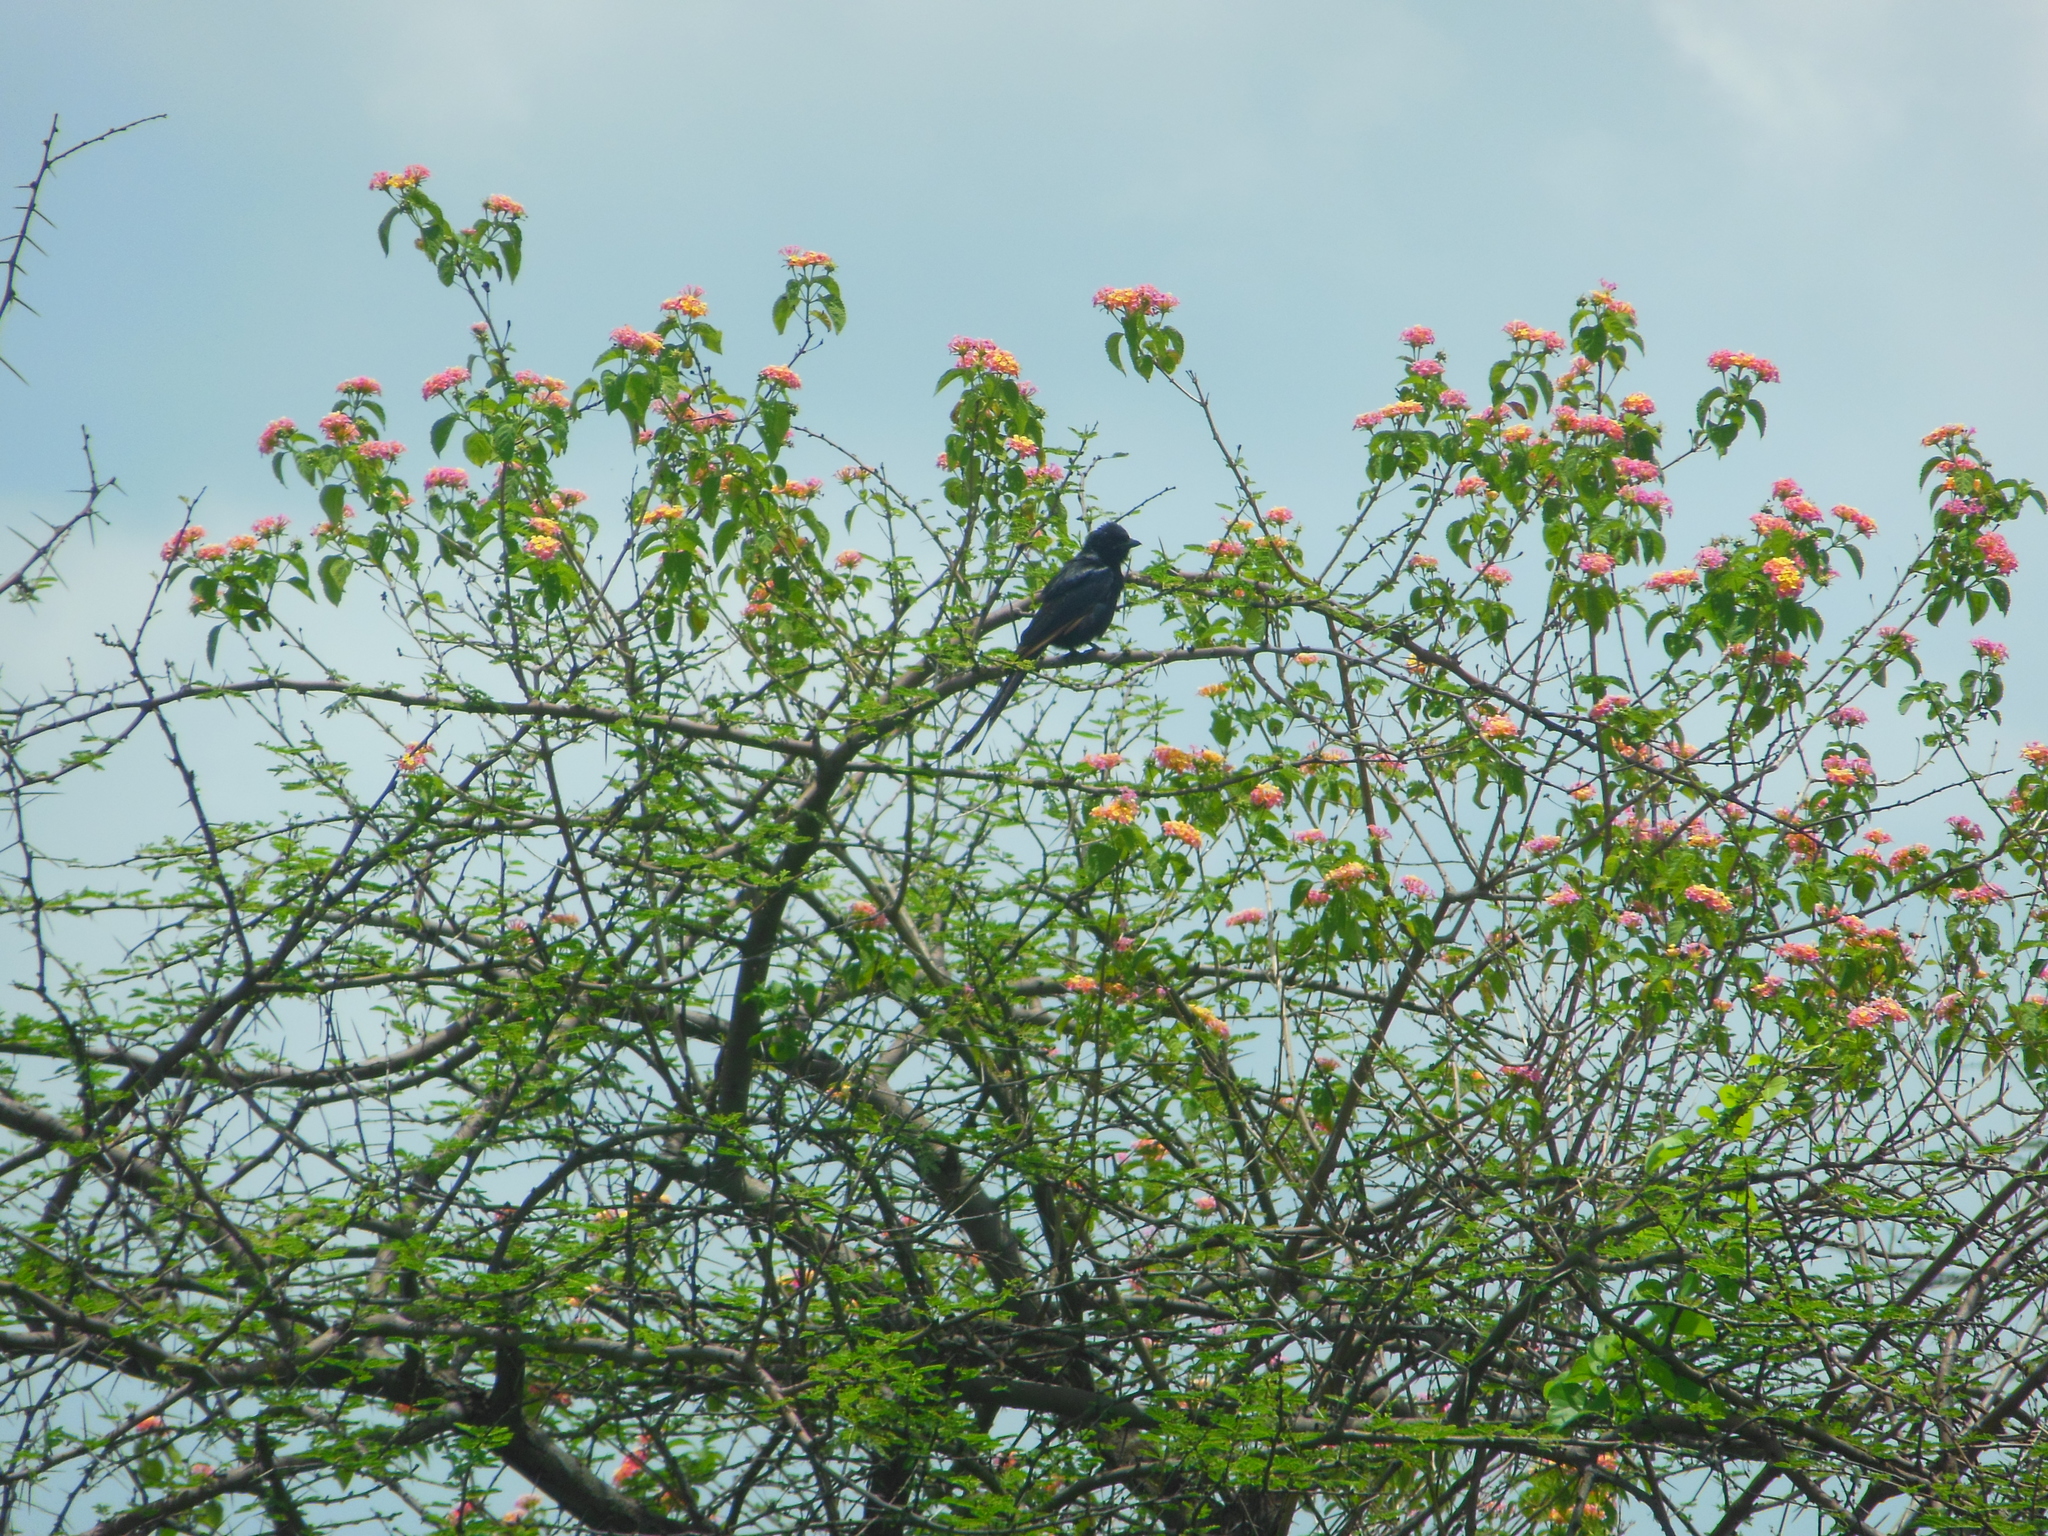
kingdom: Animalia
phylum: Chordata
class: Aves
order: Passeriformes
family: Dicruridae
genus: Dicrurus
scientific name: Dicrurus macrocercus
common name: Black drongo
